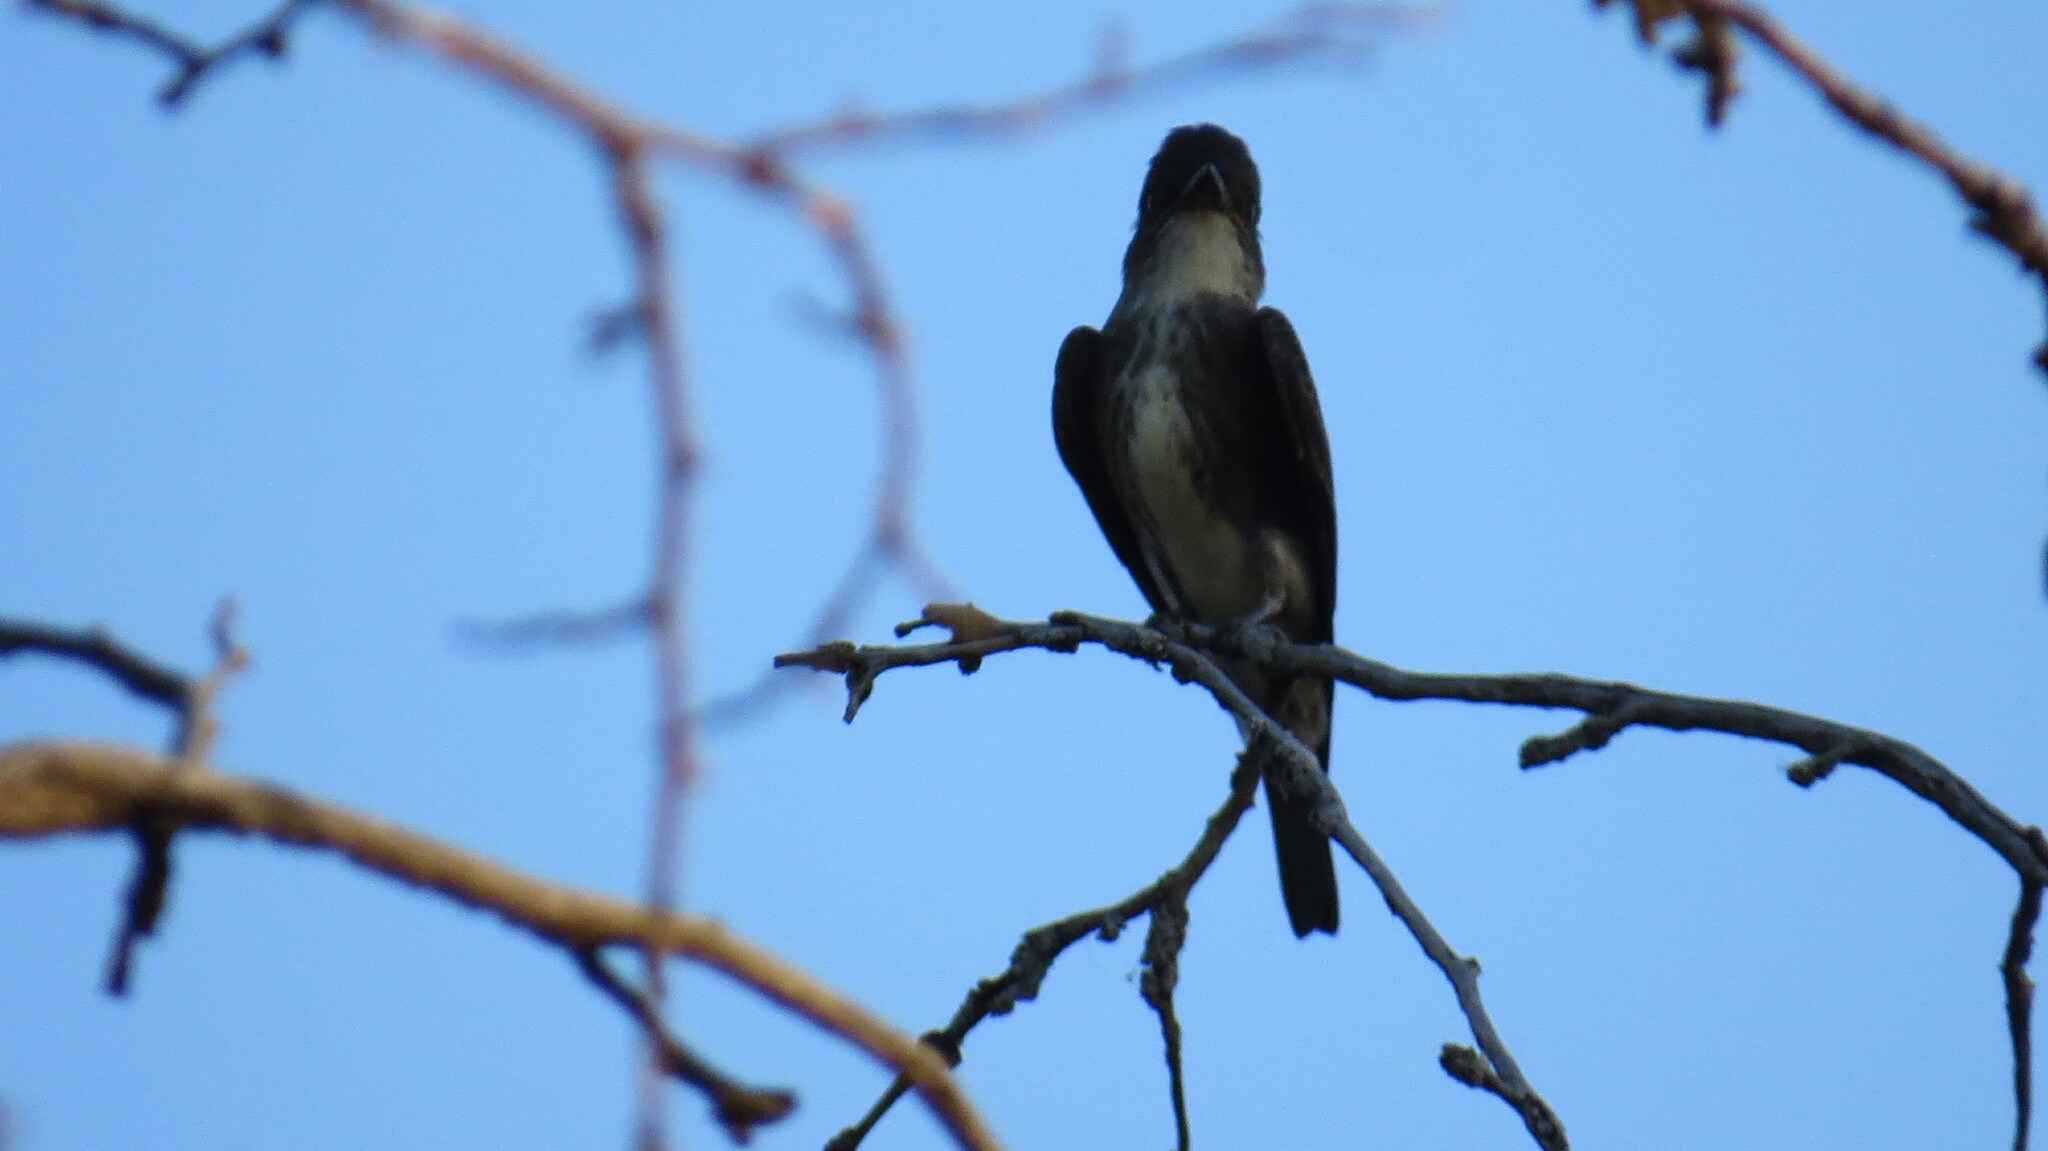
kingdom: Animalia
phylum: Chordata
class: Aves
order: Passeriformes
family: Tyrannidae
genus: Contopus
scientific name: Contopus cooperi
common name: Olive-sided flycatcher
